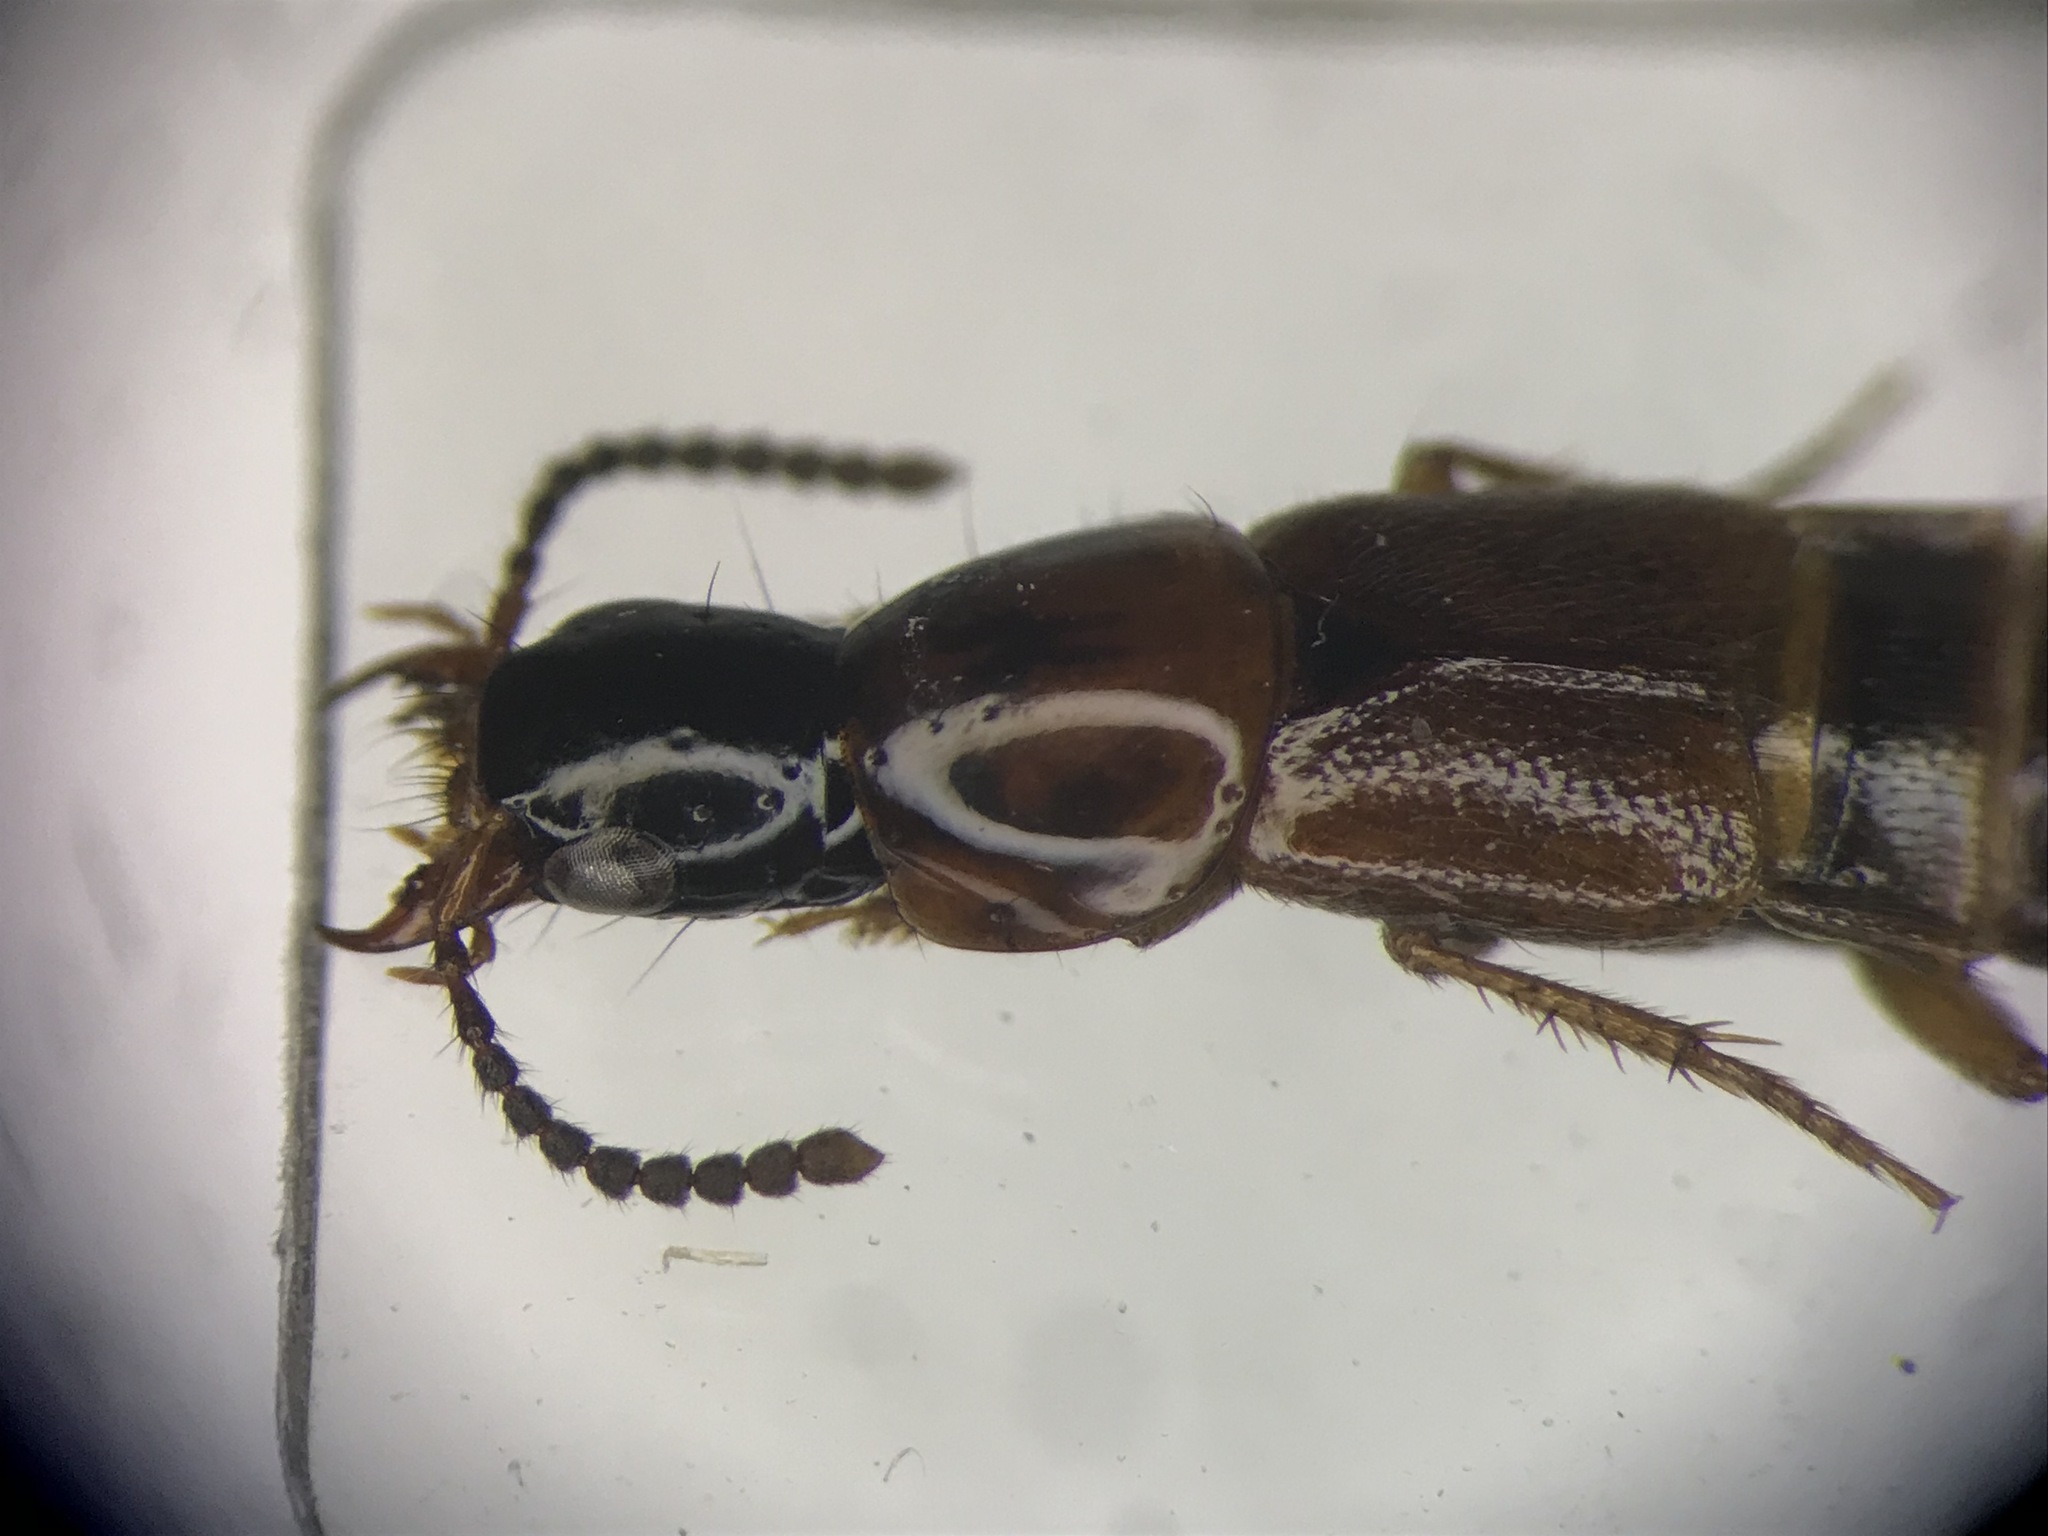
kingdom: Animalia
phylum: Arthropoda
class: Insecta
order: Coleoptera
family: Staphylinidae
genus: Quedius
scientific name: Quedius peregrinus
